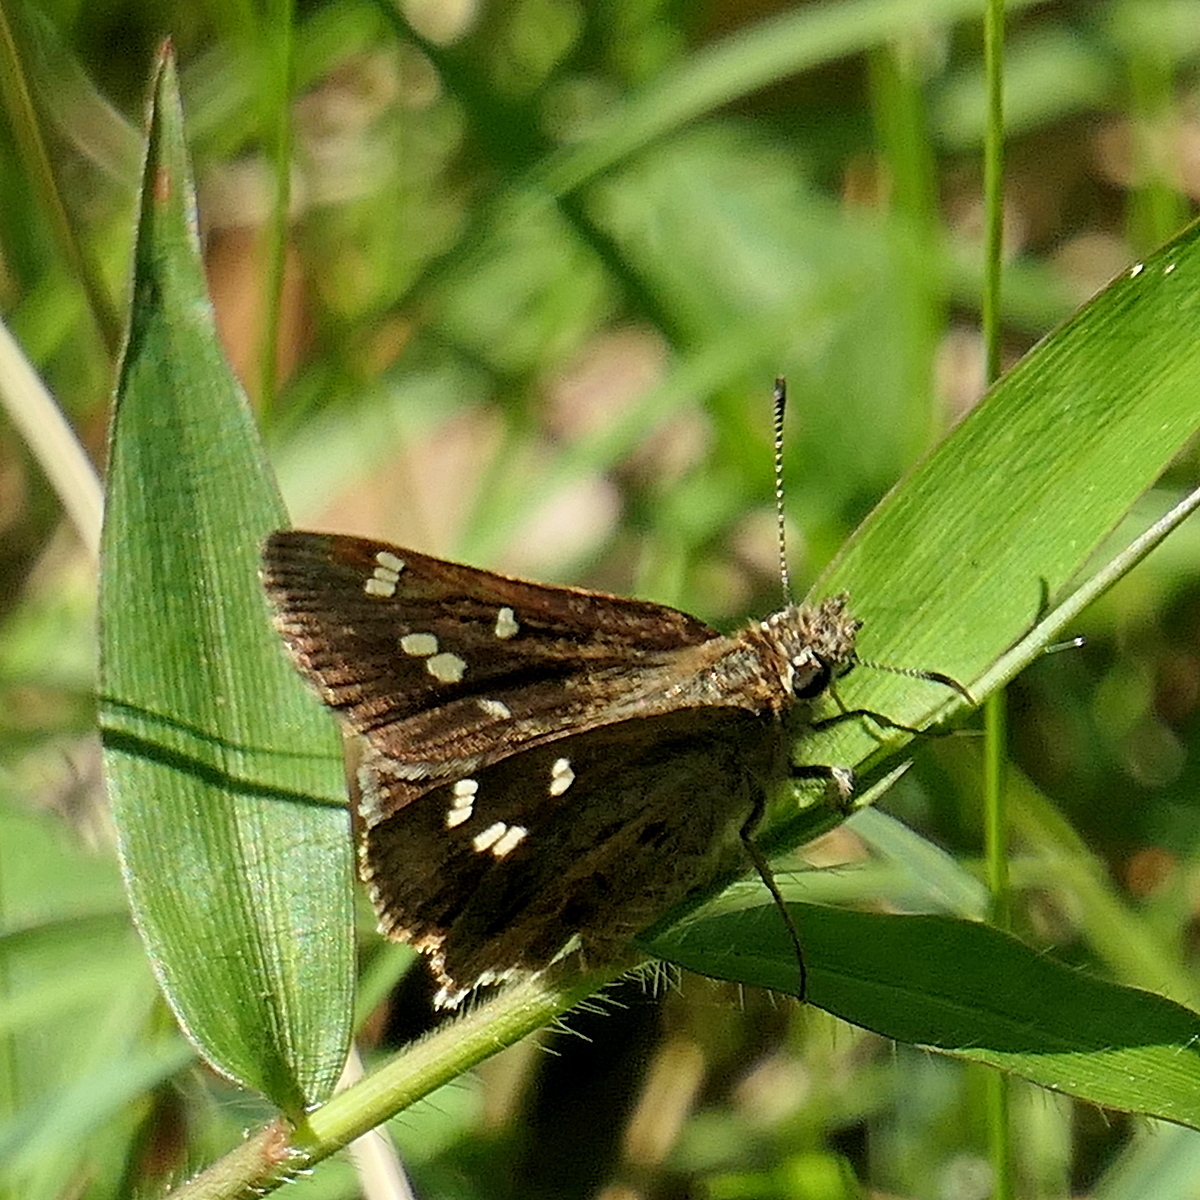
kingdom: Animalia
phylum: Arthropoda
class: Insecta
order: Lepidoptera
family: Hesperiidae
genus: Toxidia
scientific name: Toxidia parvulus
